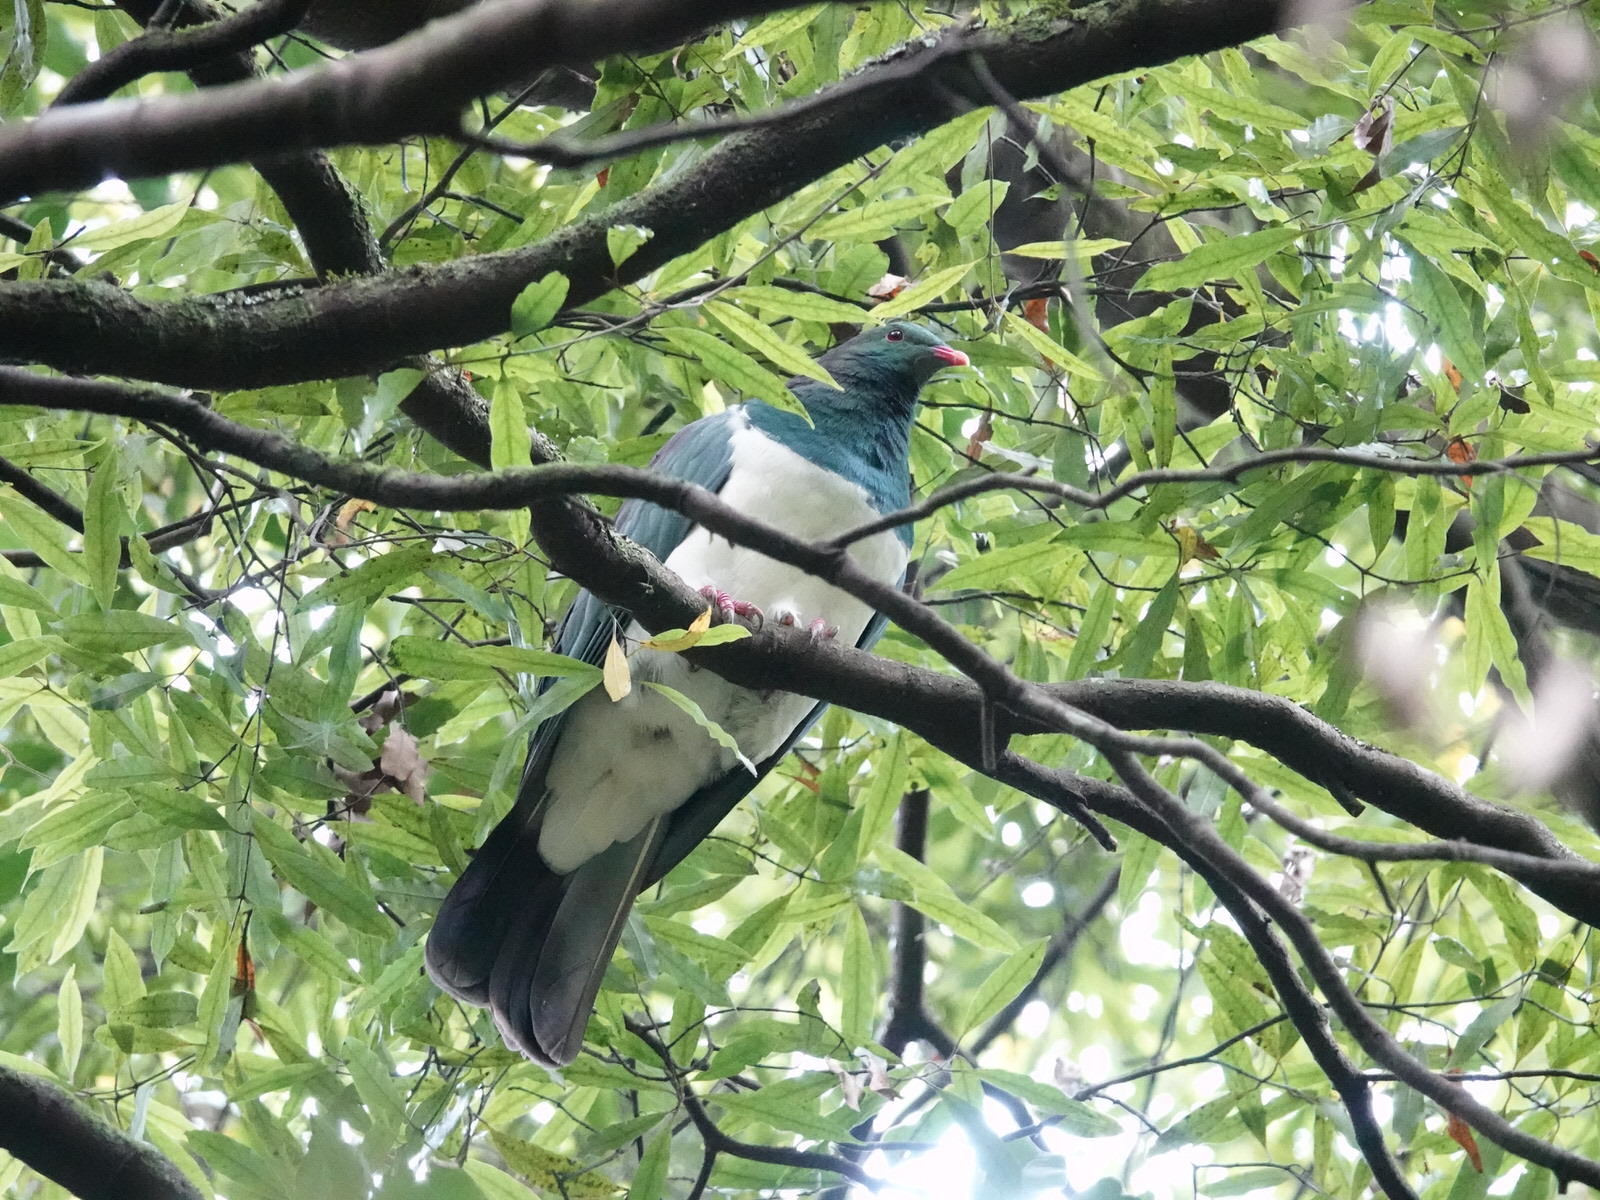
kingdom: Animalia
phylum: Chordata
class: Aves
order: Columbiformes
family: Columbidae
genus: Hemiphaga
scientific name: Hemiphaga novaeseelandiae
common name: New zealand pigeon
